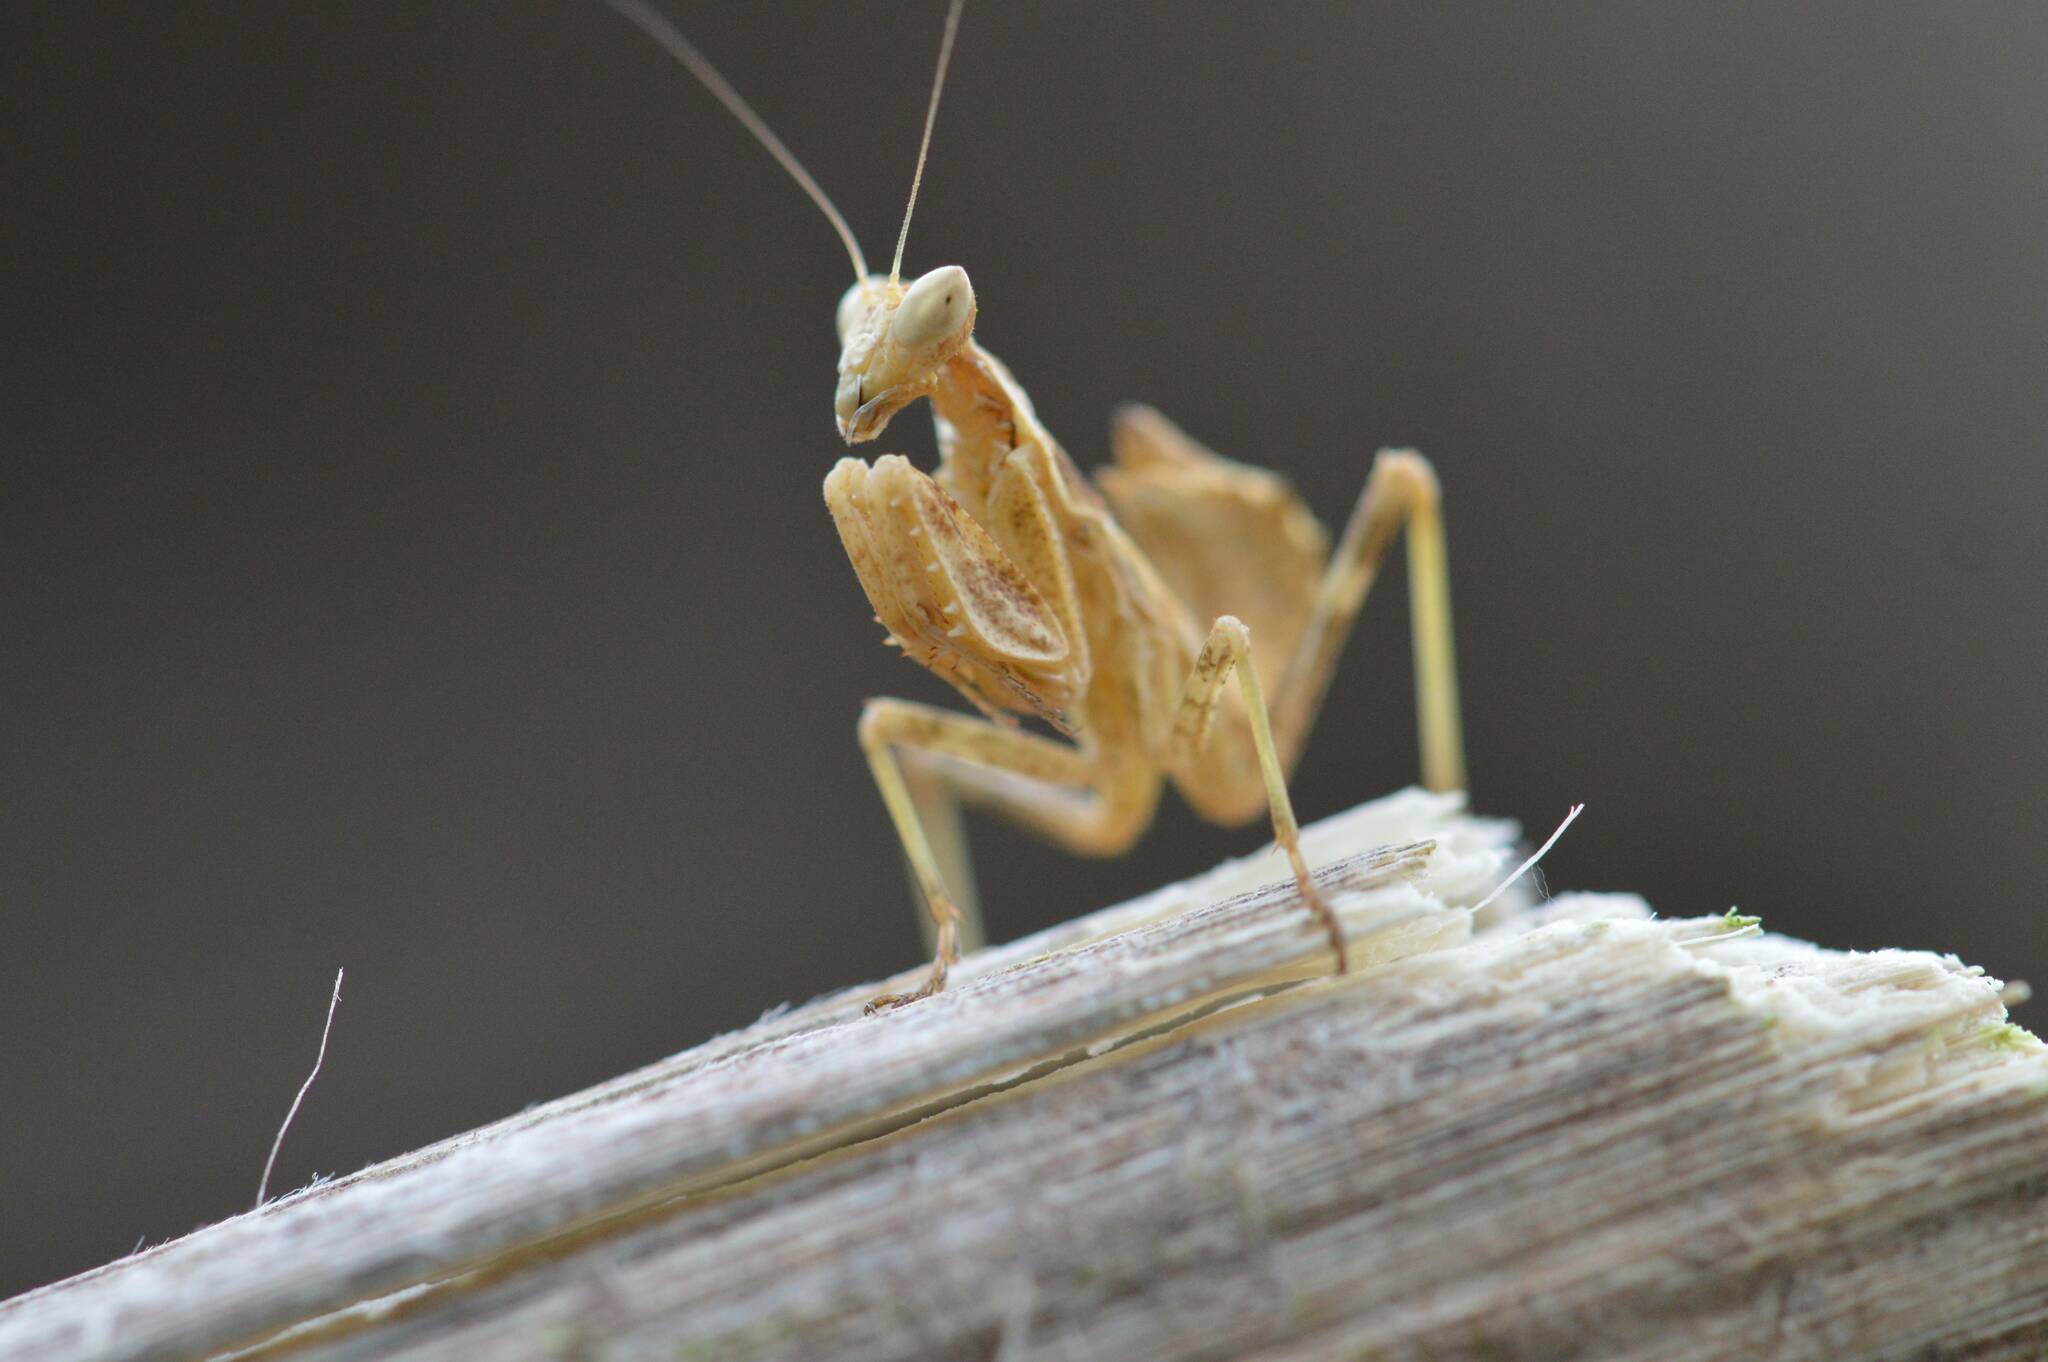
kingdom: Animalia
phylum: Arthropoda
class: Insecta
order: Mantodea
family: Amelidae
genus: Ameles
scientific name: Ameles spallanzania
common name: European dwarf mantis
